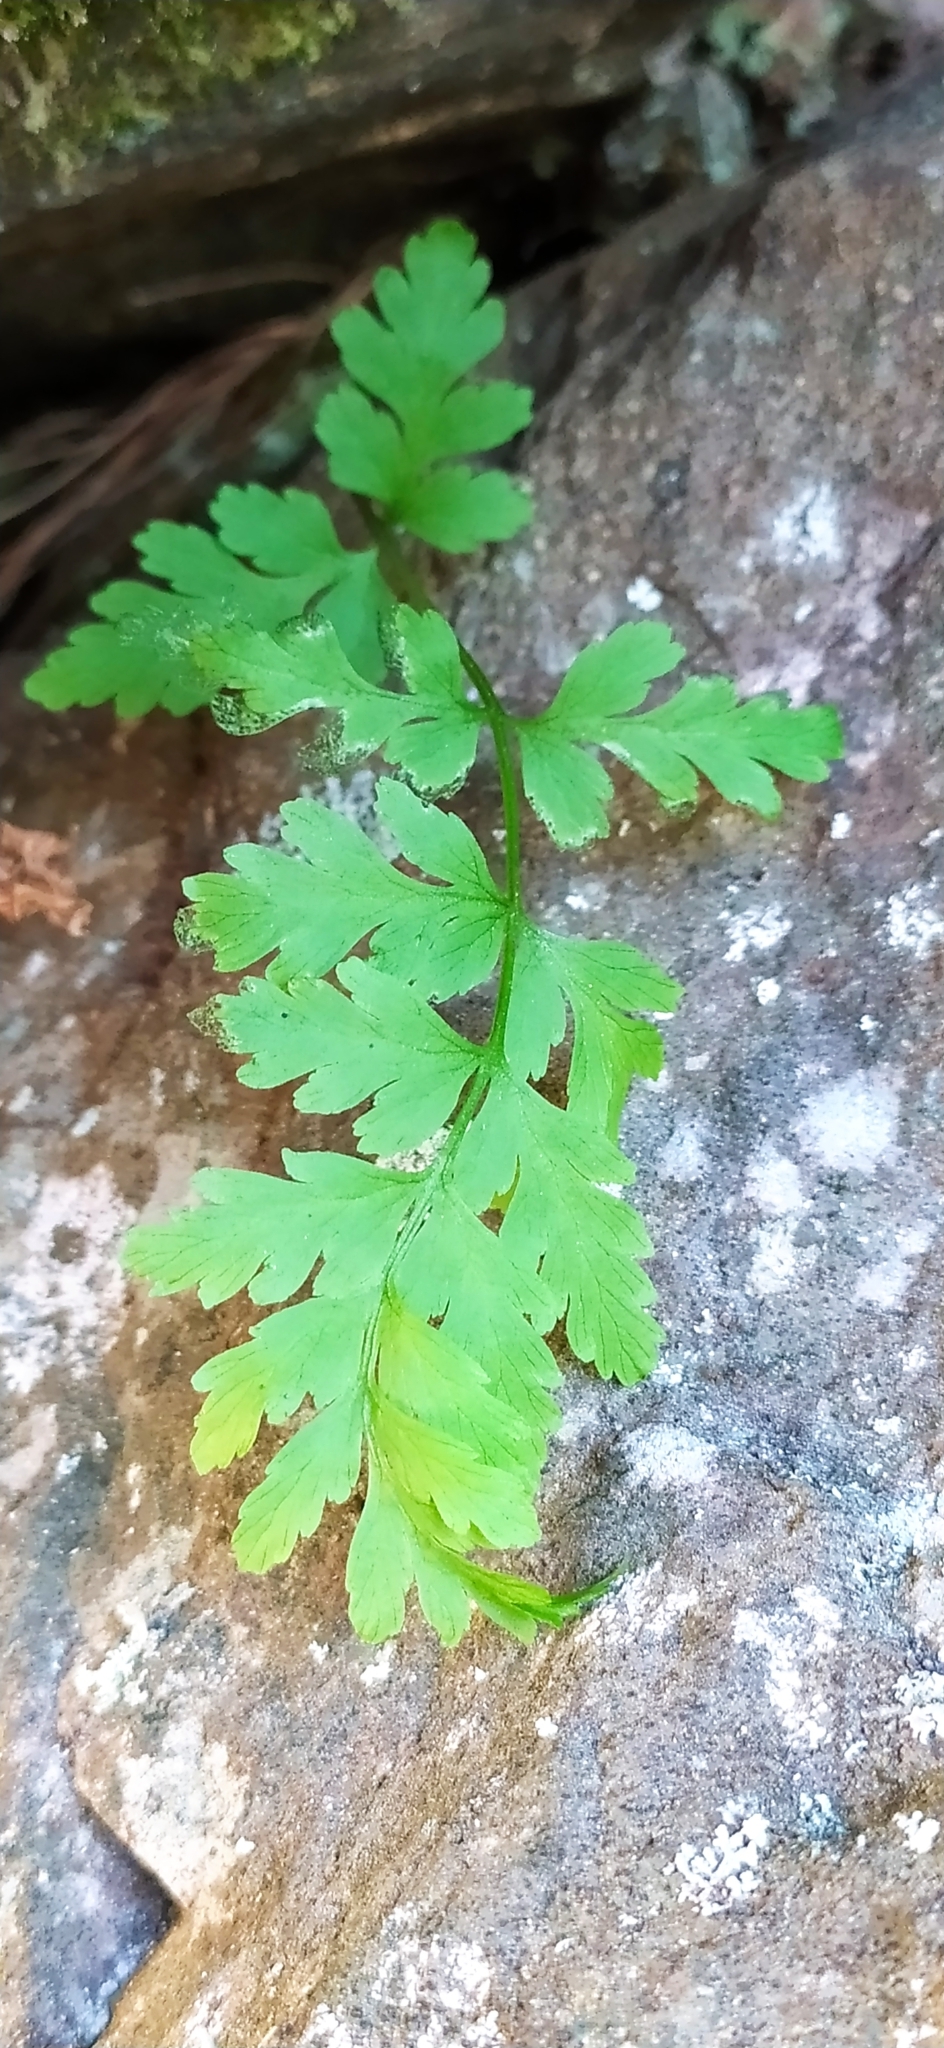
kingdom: Plantae
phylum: Tracheophyta
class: Polypodiopsida
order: Polypodiales
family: Cystopteridaceae
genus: Cystopteris
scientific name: Cystopteris fragilis
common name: Brittle bladder fern
